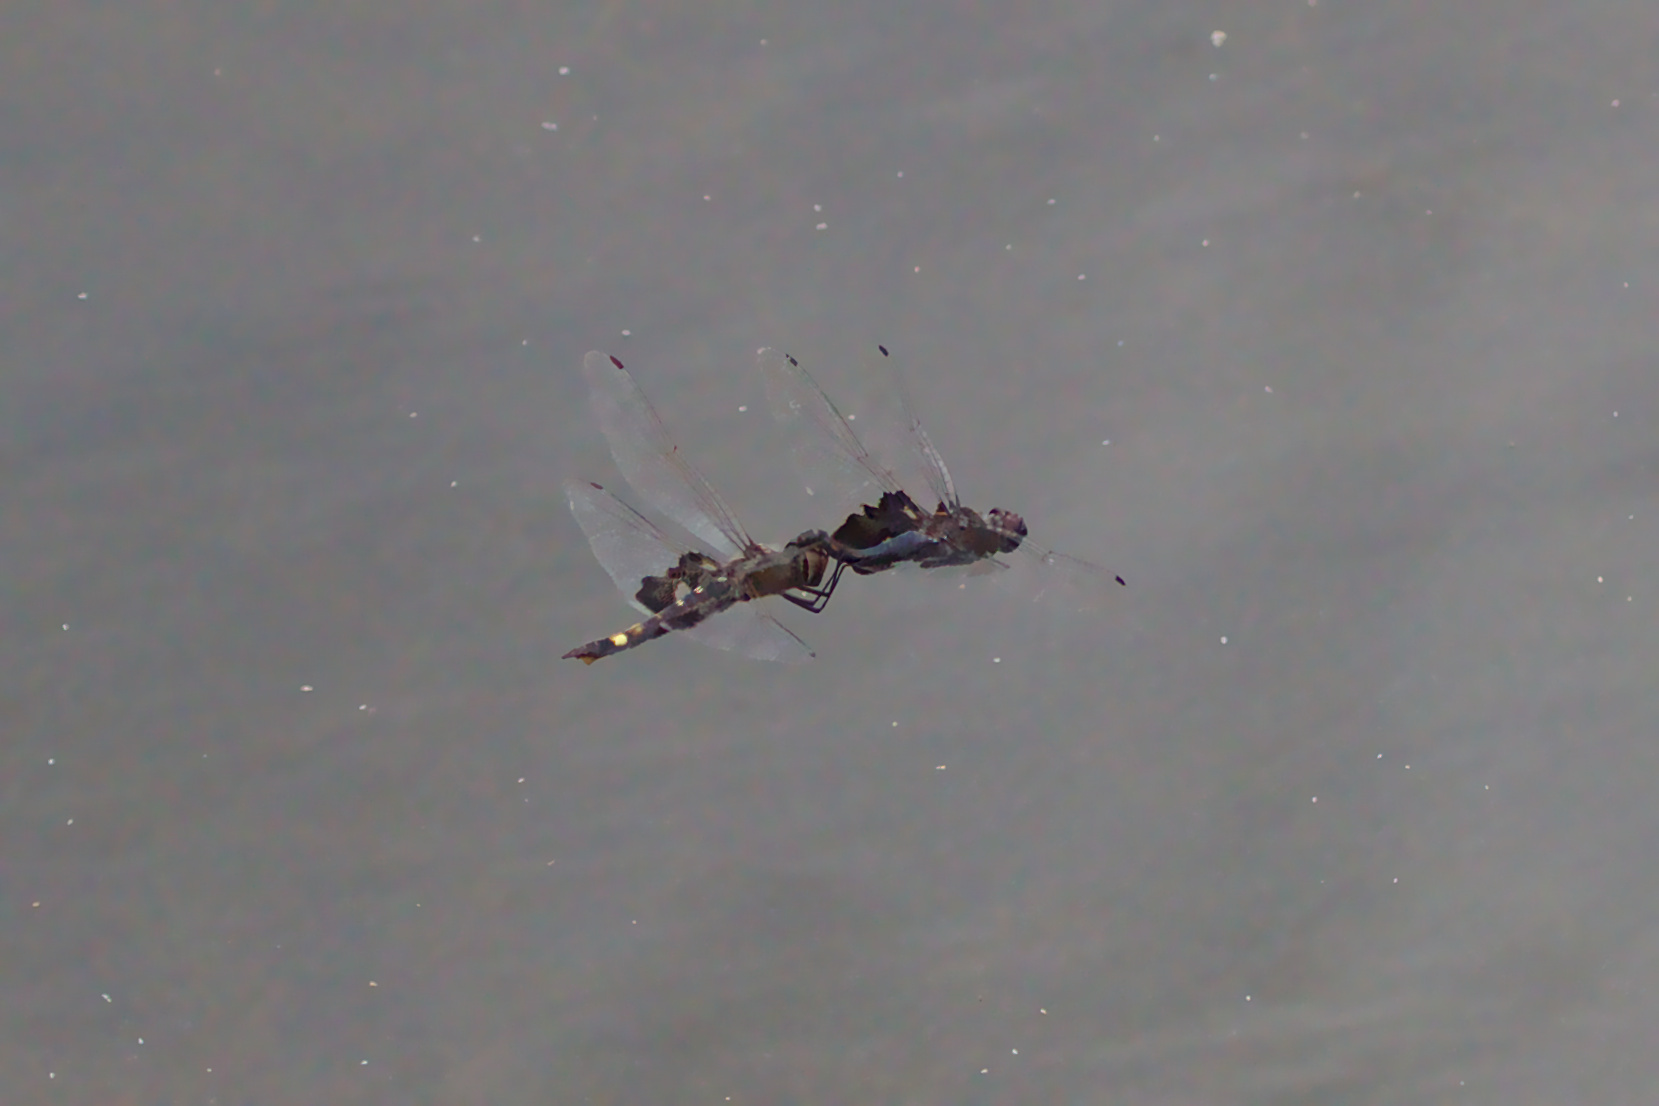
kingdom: Animalia
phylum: Arthropoda
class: Insecta
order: Odonata
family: Libellulidae
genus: Tramea
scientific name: Tramea lacerata
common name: Black saddlebags
